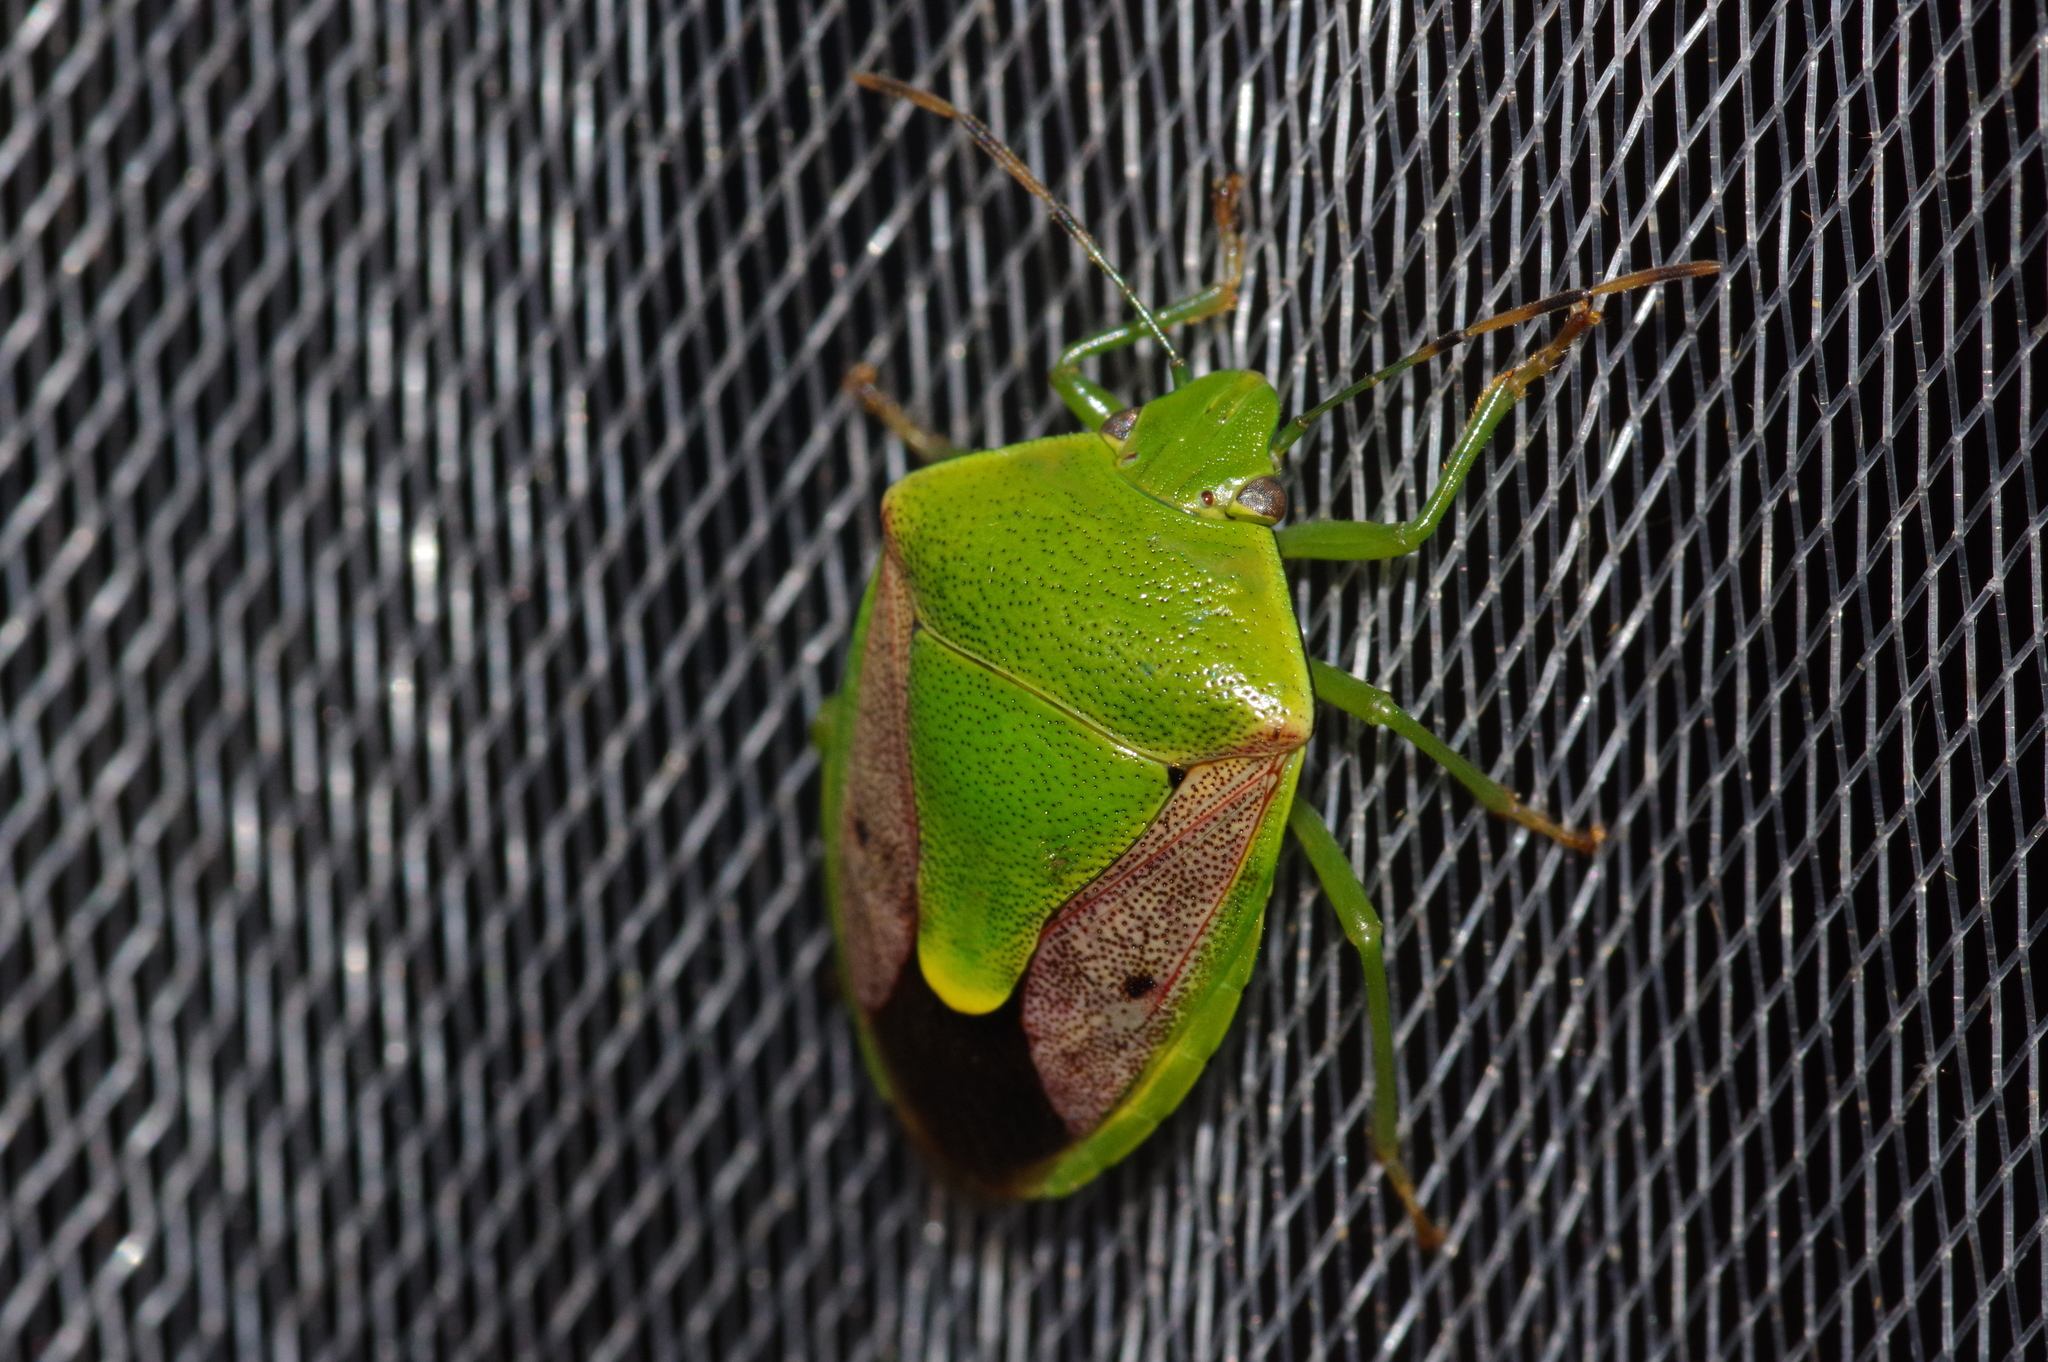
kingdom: Animalia
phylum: Arthropoda
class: Insecta
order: Hemiptera
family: Pentatomidae
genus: Plautia
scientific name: Plautia stali
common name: Stink bug
